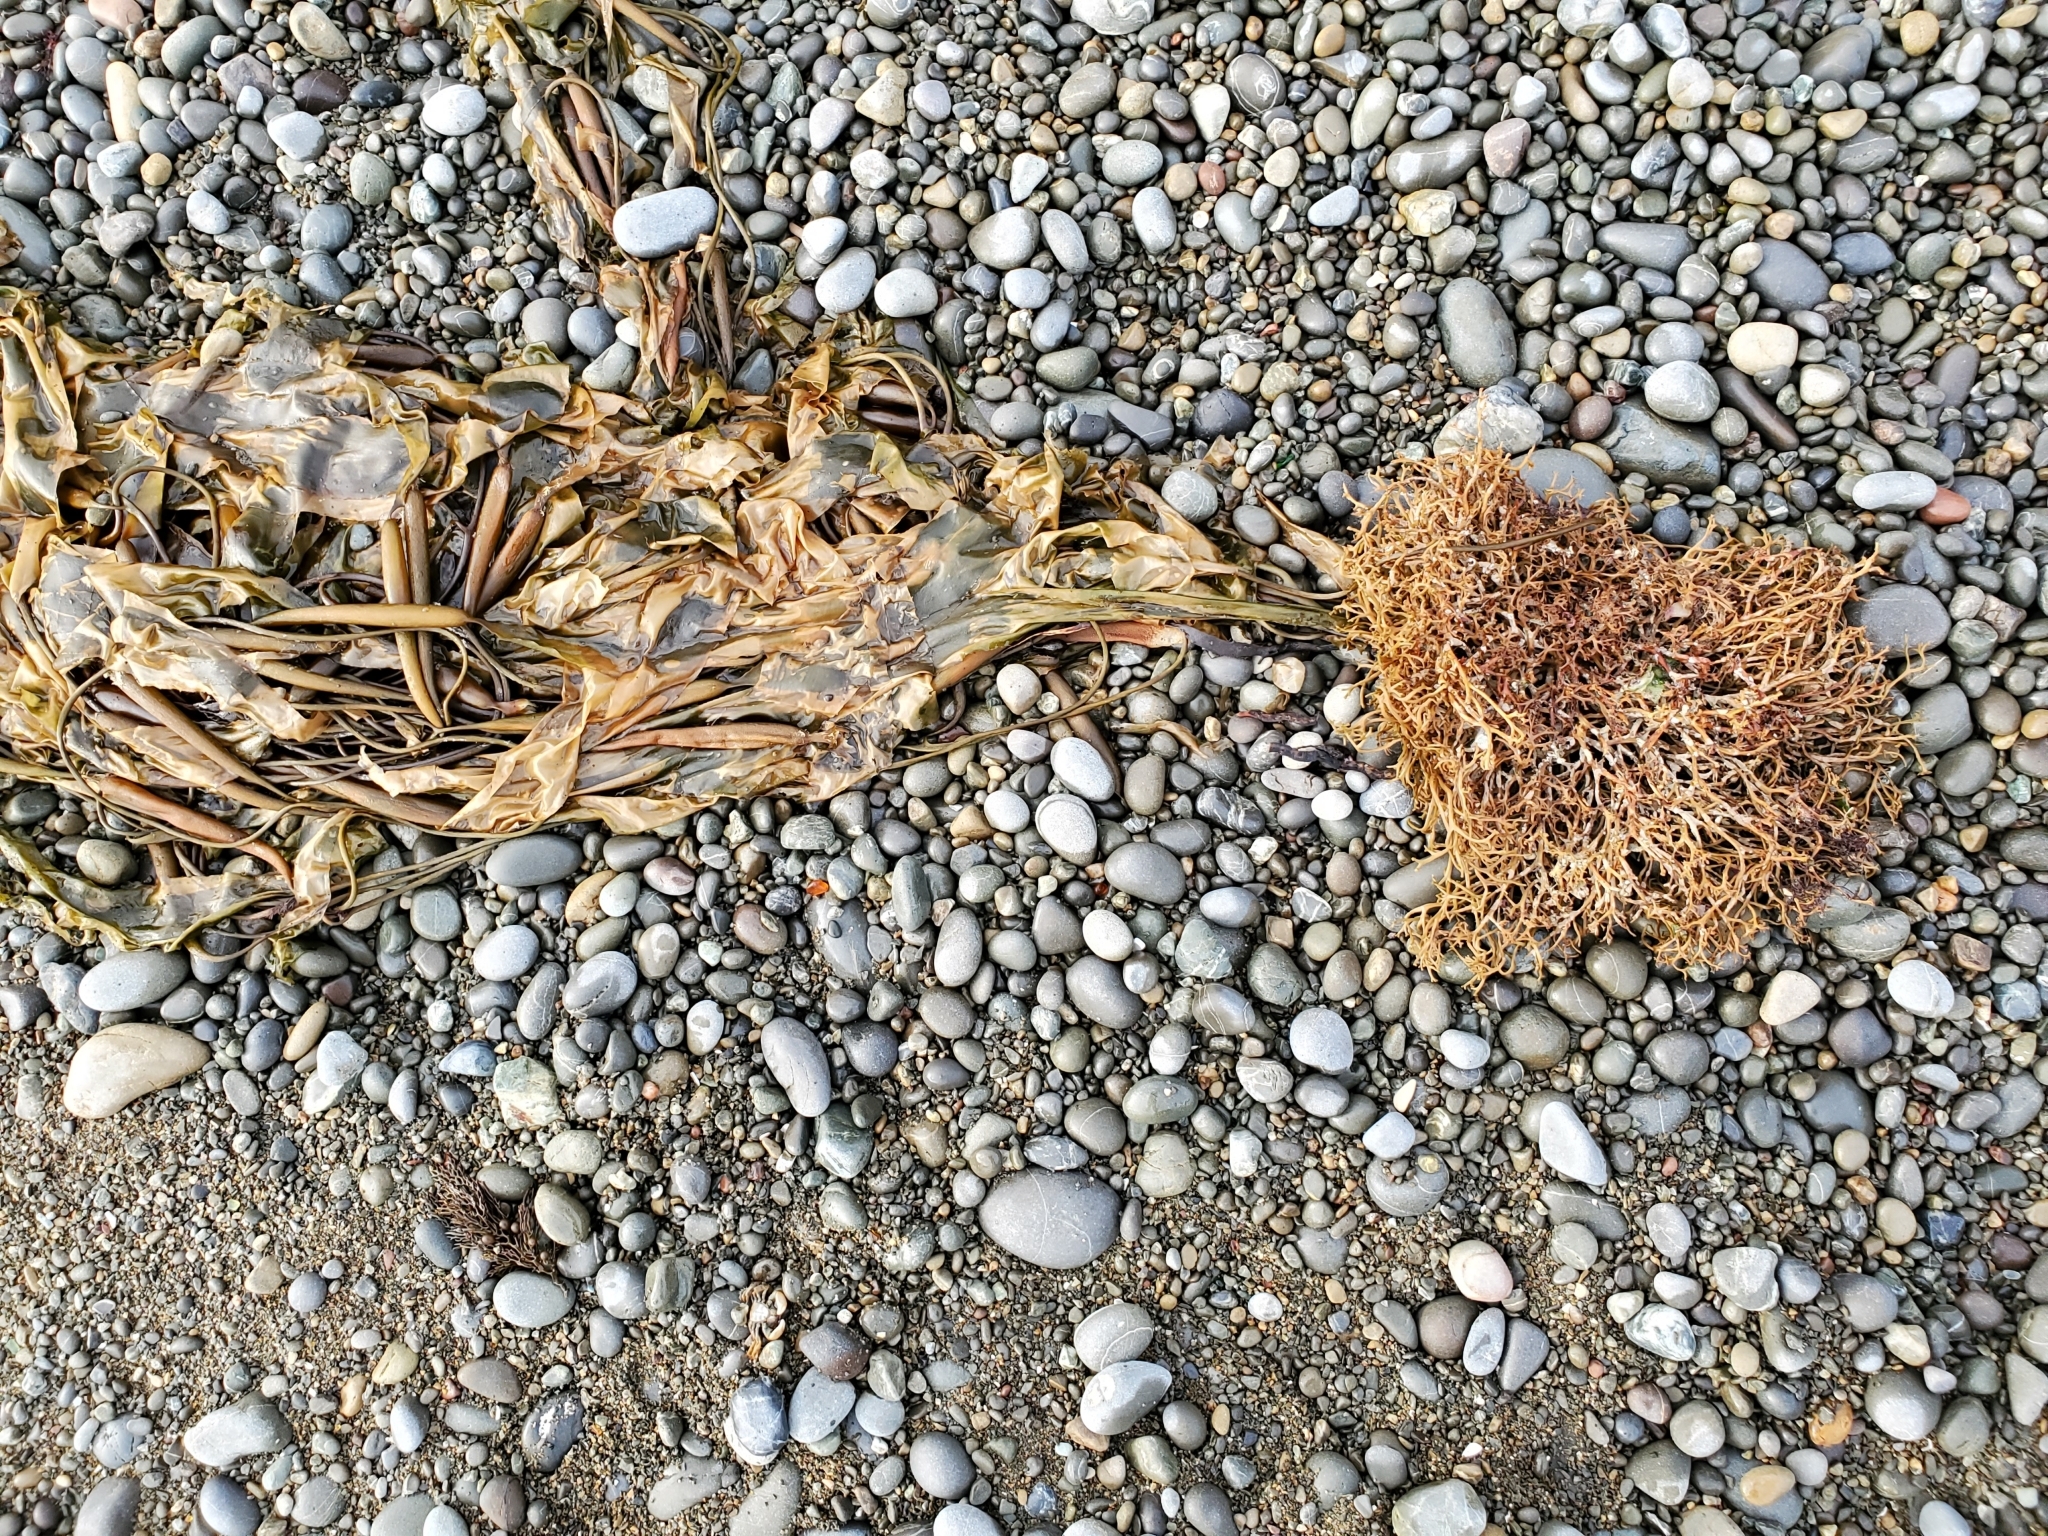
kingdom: Chromista
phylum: Ochrophyta
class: Phaeophyceae
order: Laminariales
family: Laminariaceae
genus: Macrocystis
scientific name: Macrocystis pyrifera
